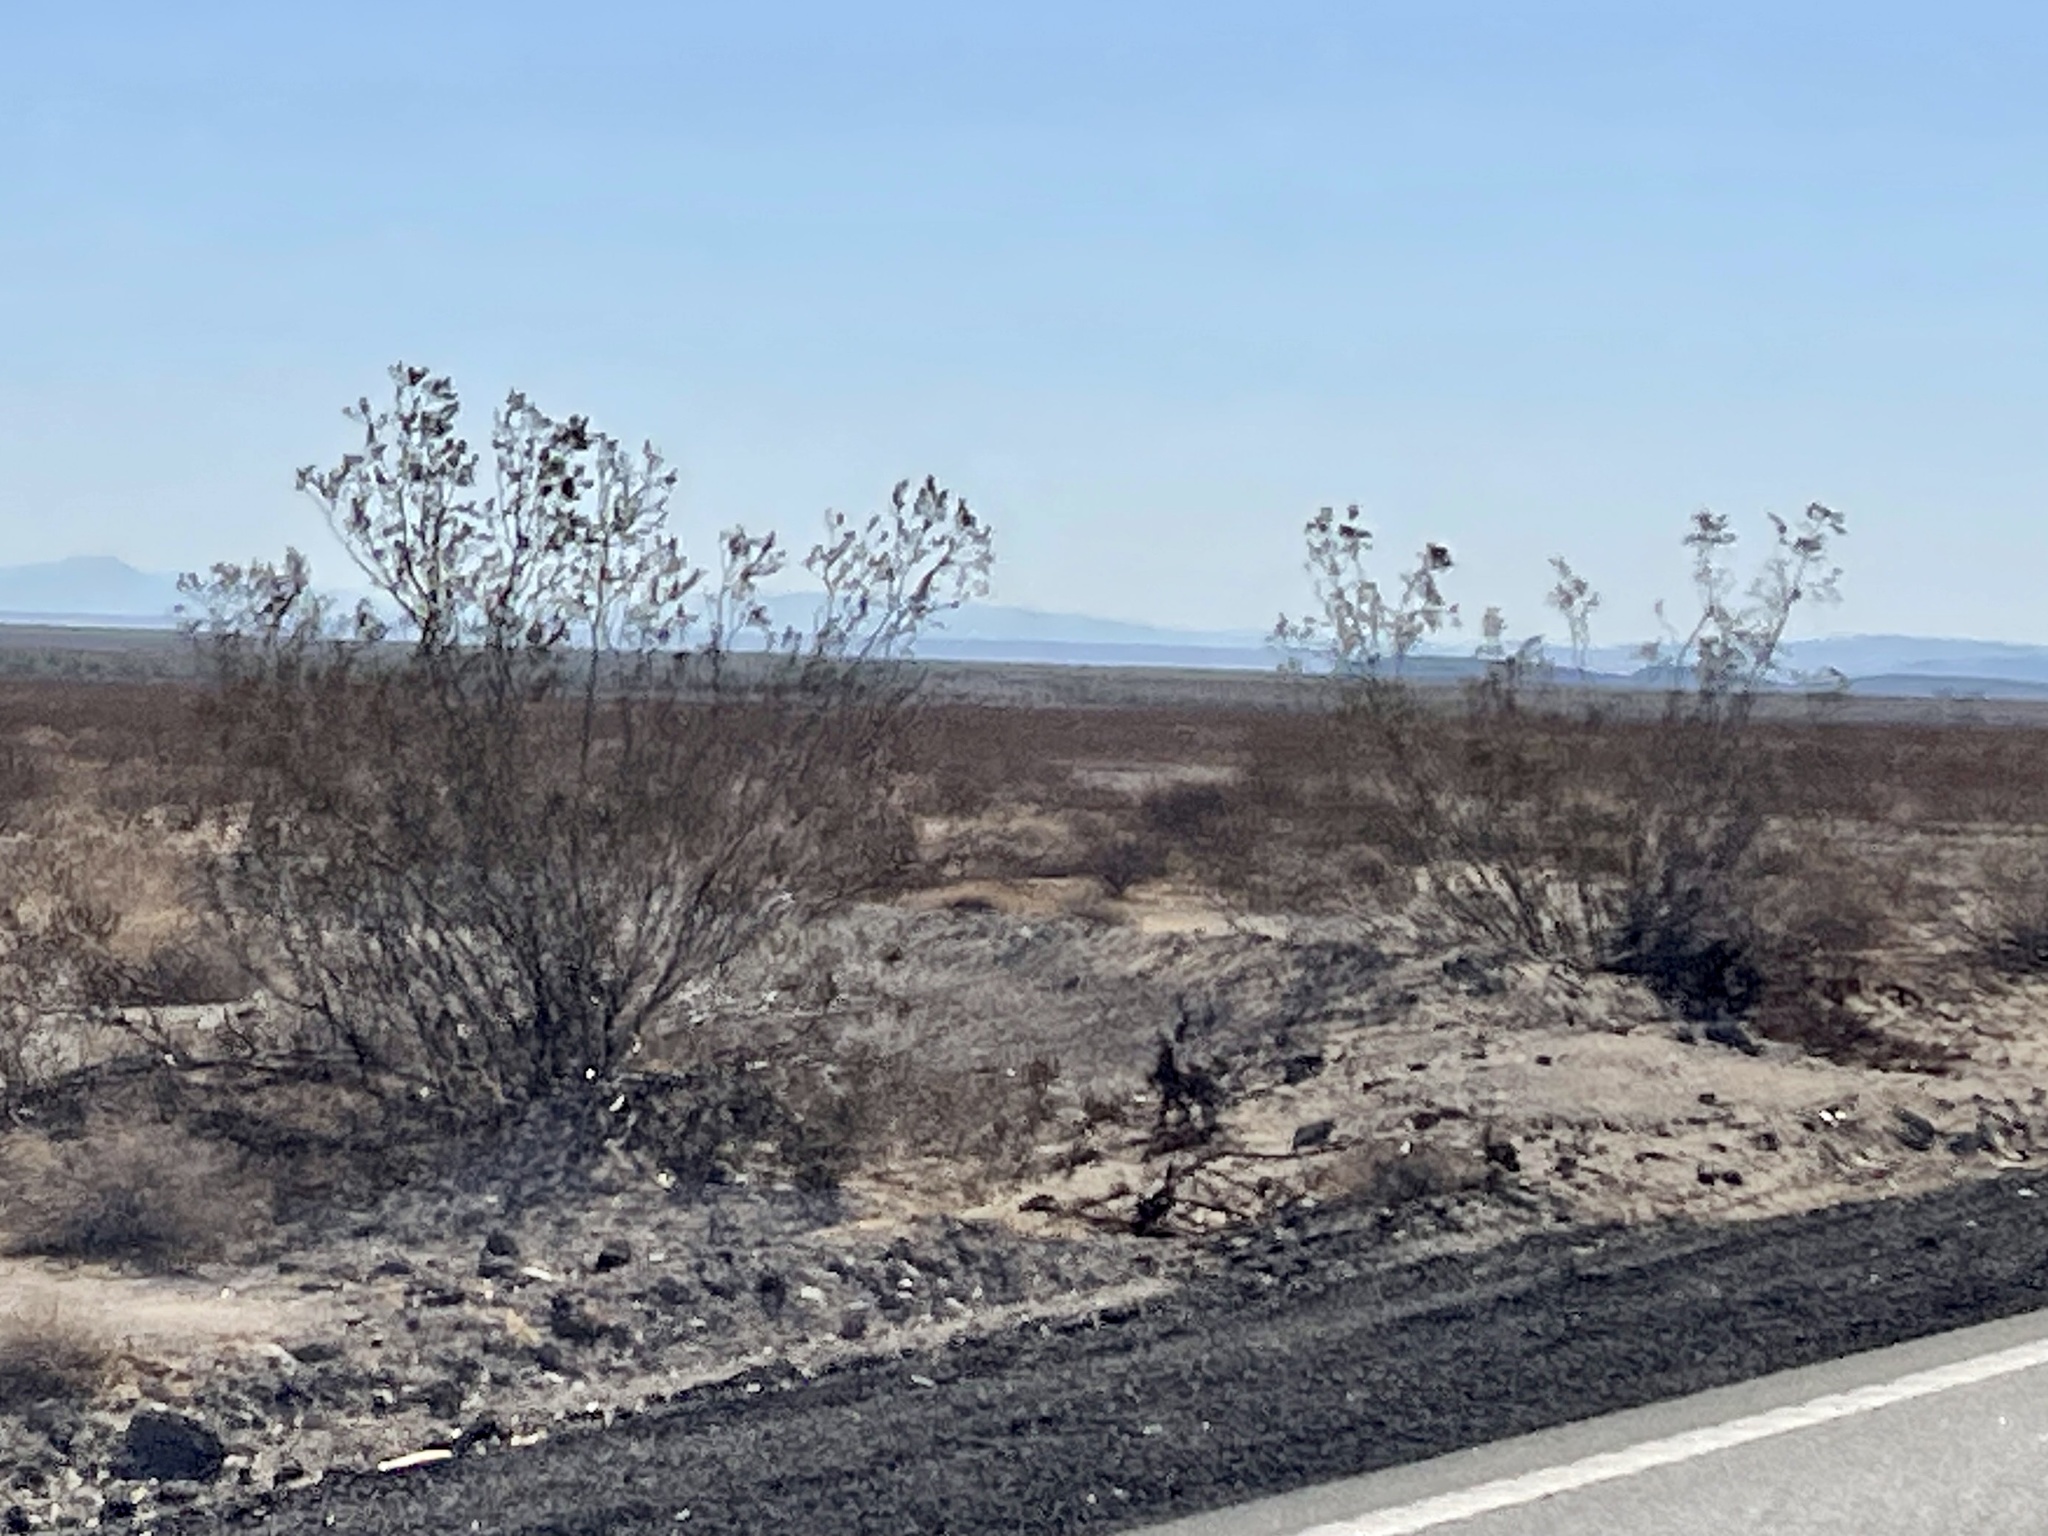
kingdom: Plantae
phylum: Tracheophyta
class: Magnoliopsida
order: Zygophyllales
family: Zygophyllaceae
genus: Larrea
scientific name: Larrea tridentata
